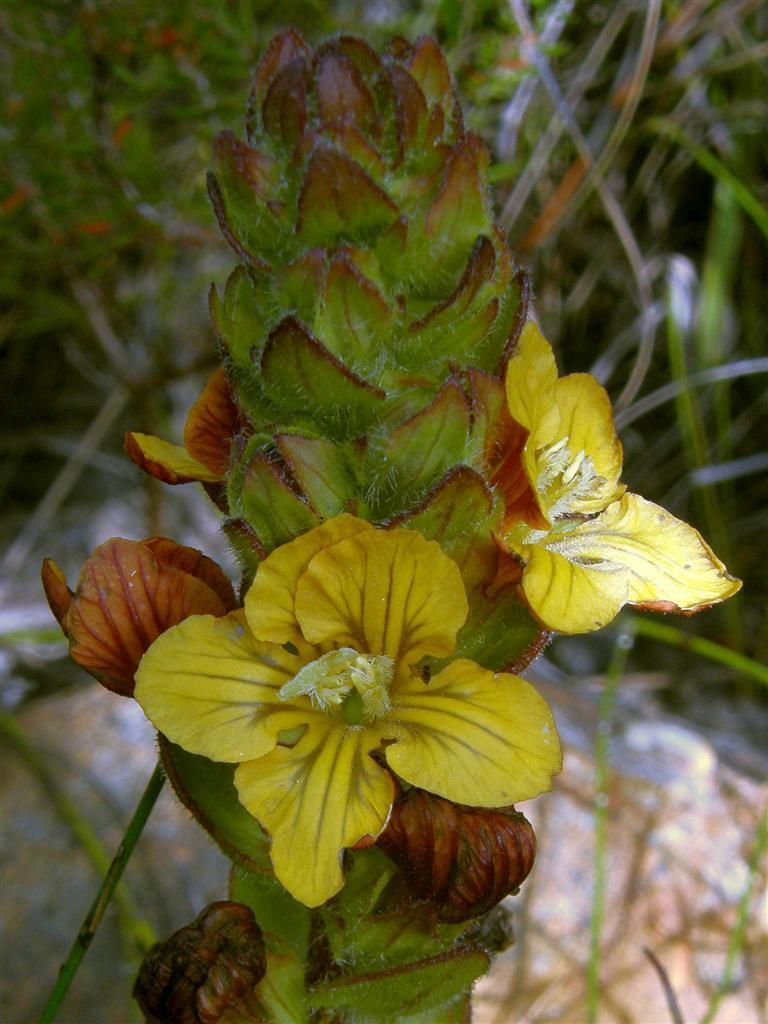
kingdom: Plantae
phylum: Tracheophyta
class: Magnoliopsida
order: Lamiales
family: Orobanchaceae
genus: Alectra
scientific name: Alectra sessiliflora
